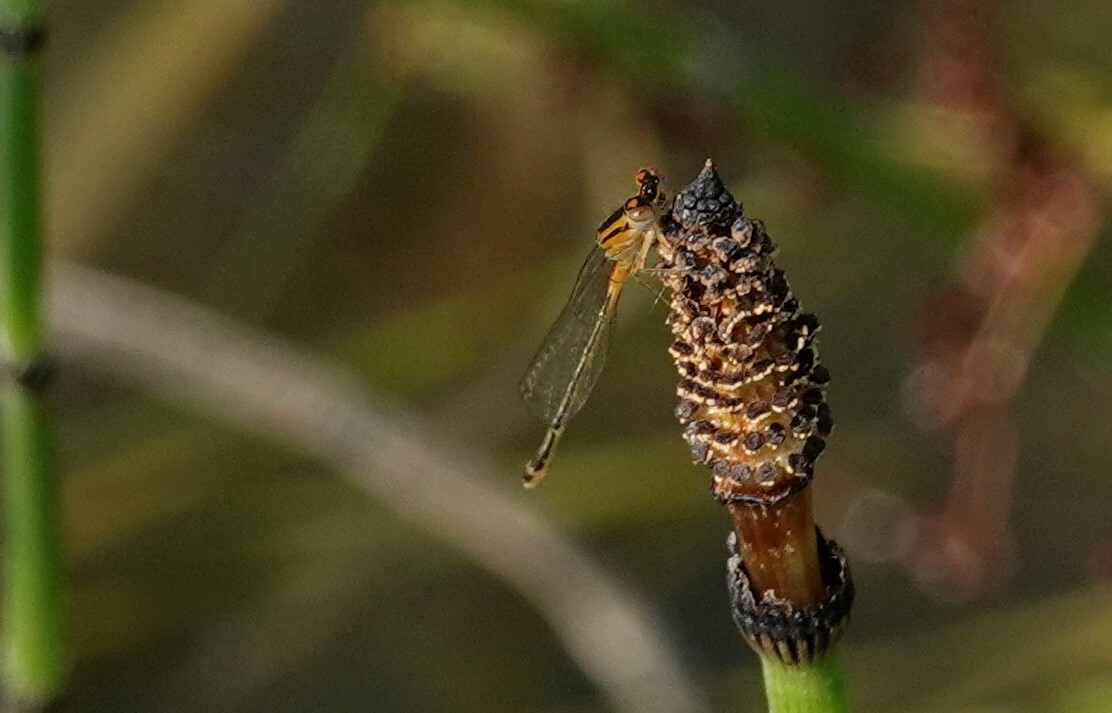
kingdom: Animalia
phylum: Arthropoda
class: Insecta
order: Odonata
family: Coenagrionidae
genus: Ischnura
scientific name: Ischnura verticalis
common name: Eastern forktail
